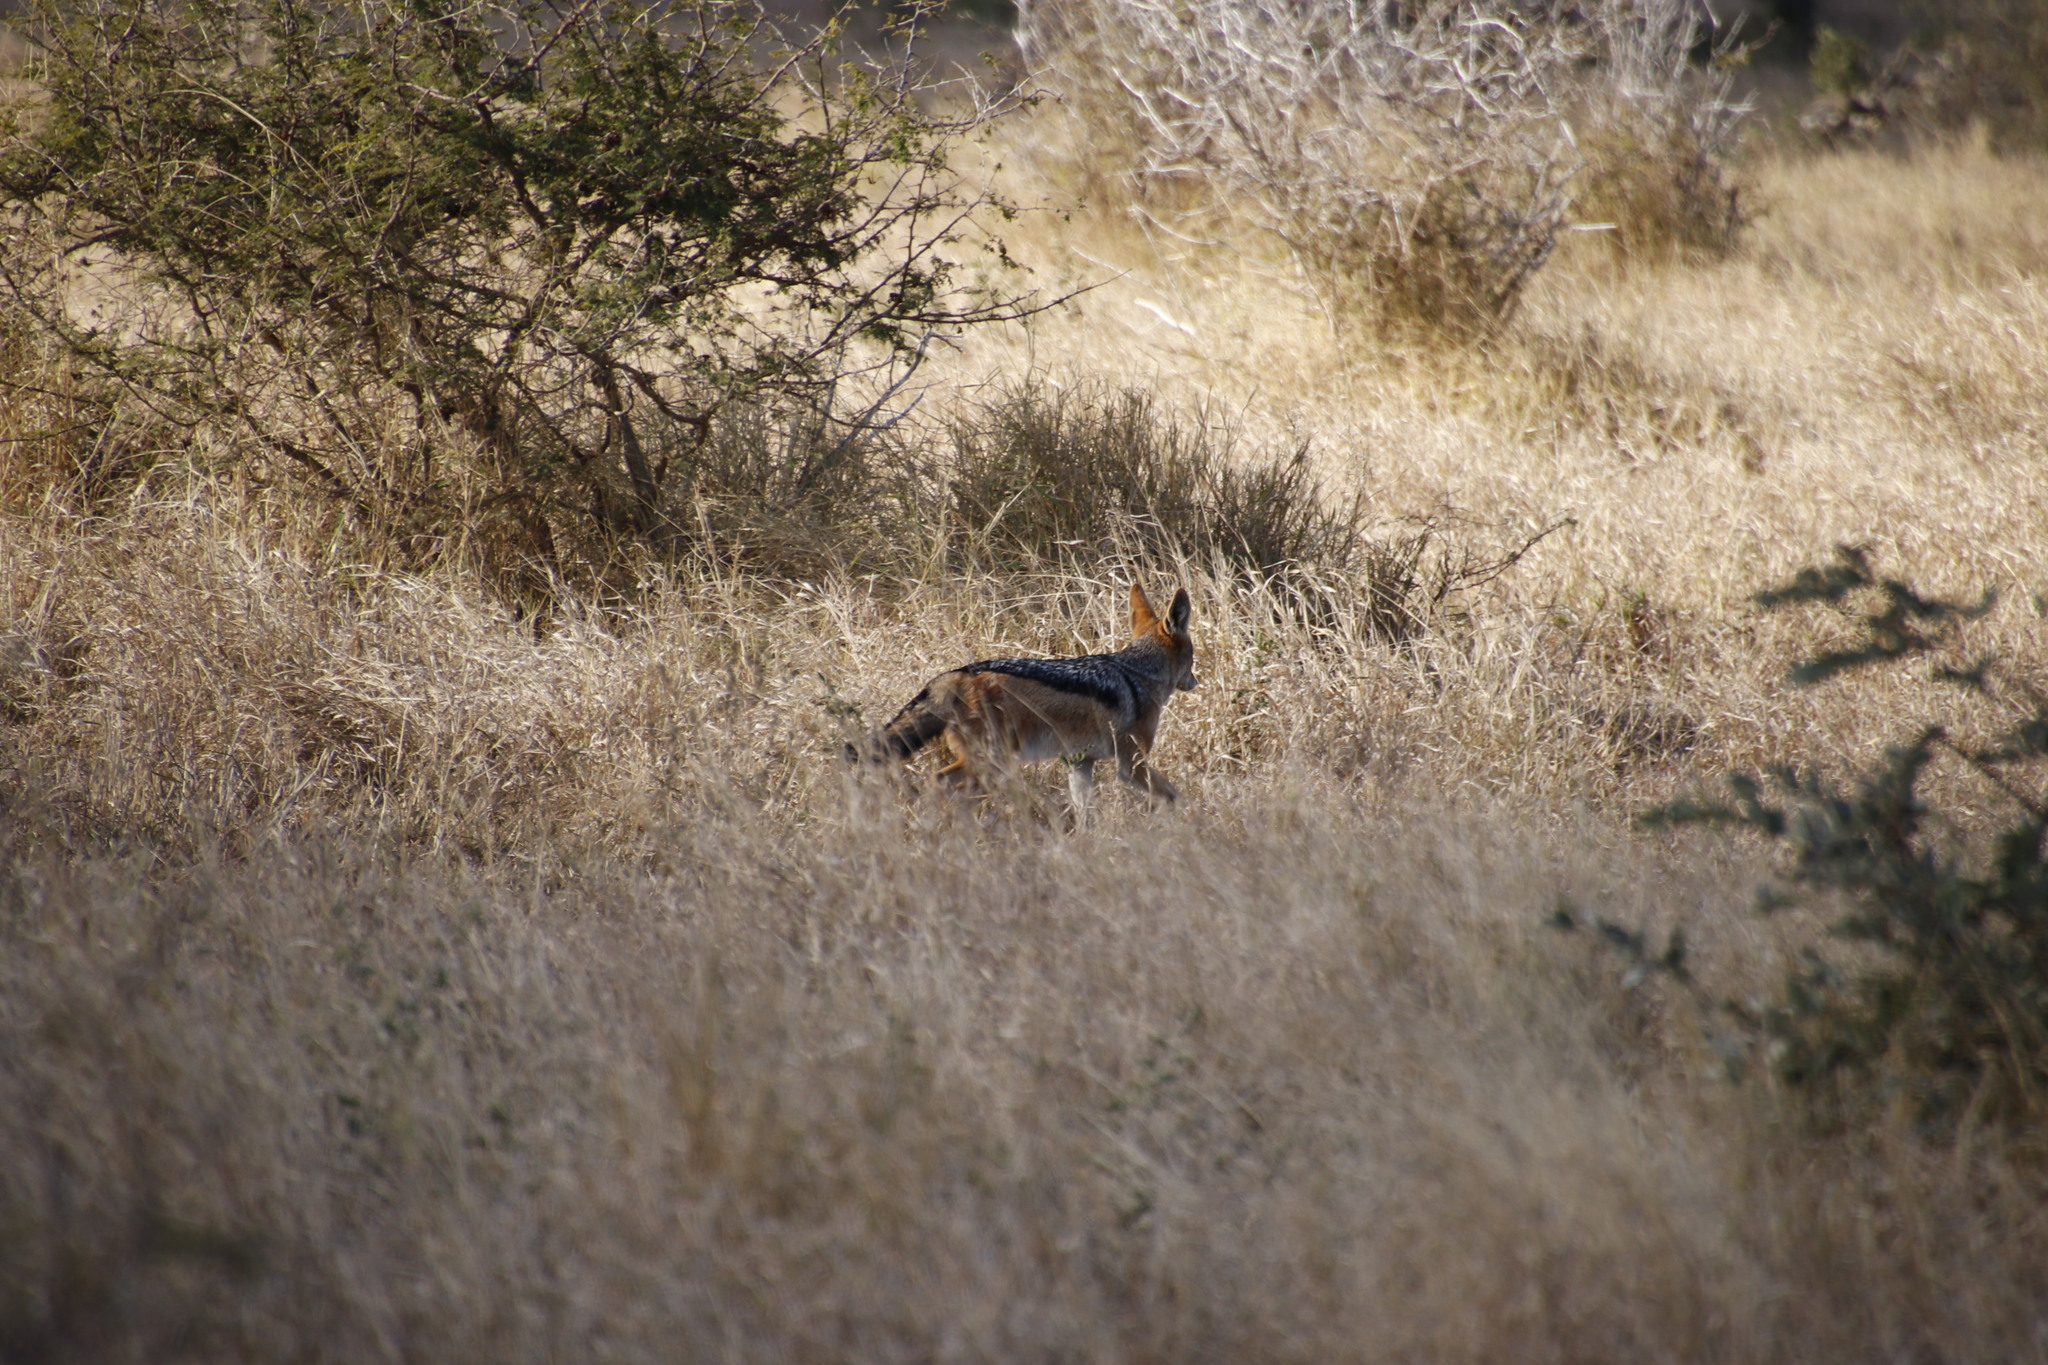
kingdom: Animalia
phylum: Chordata
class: Mammalia
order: Carnivora
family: Canidae
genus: Lupulella
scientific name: Lupulella
